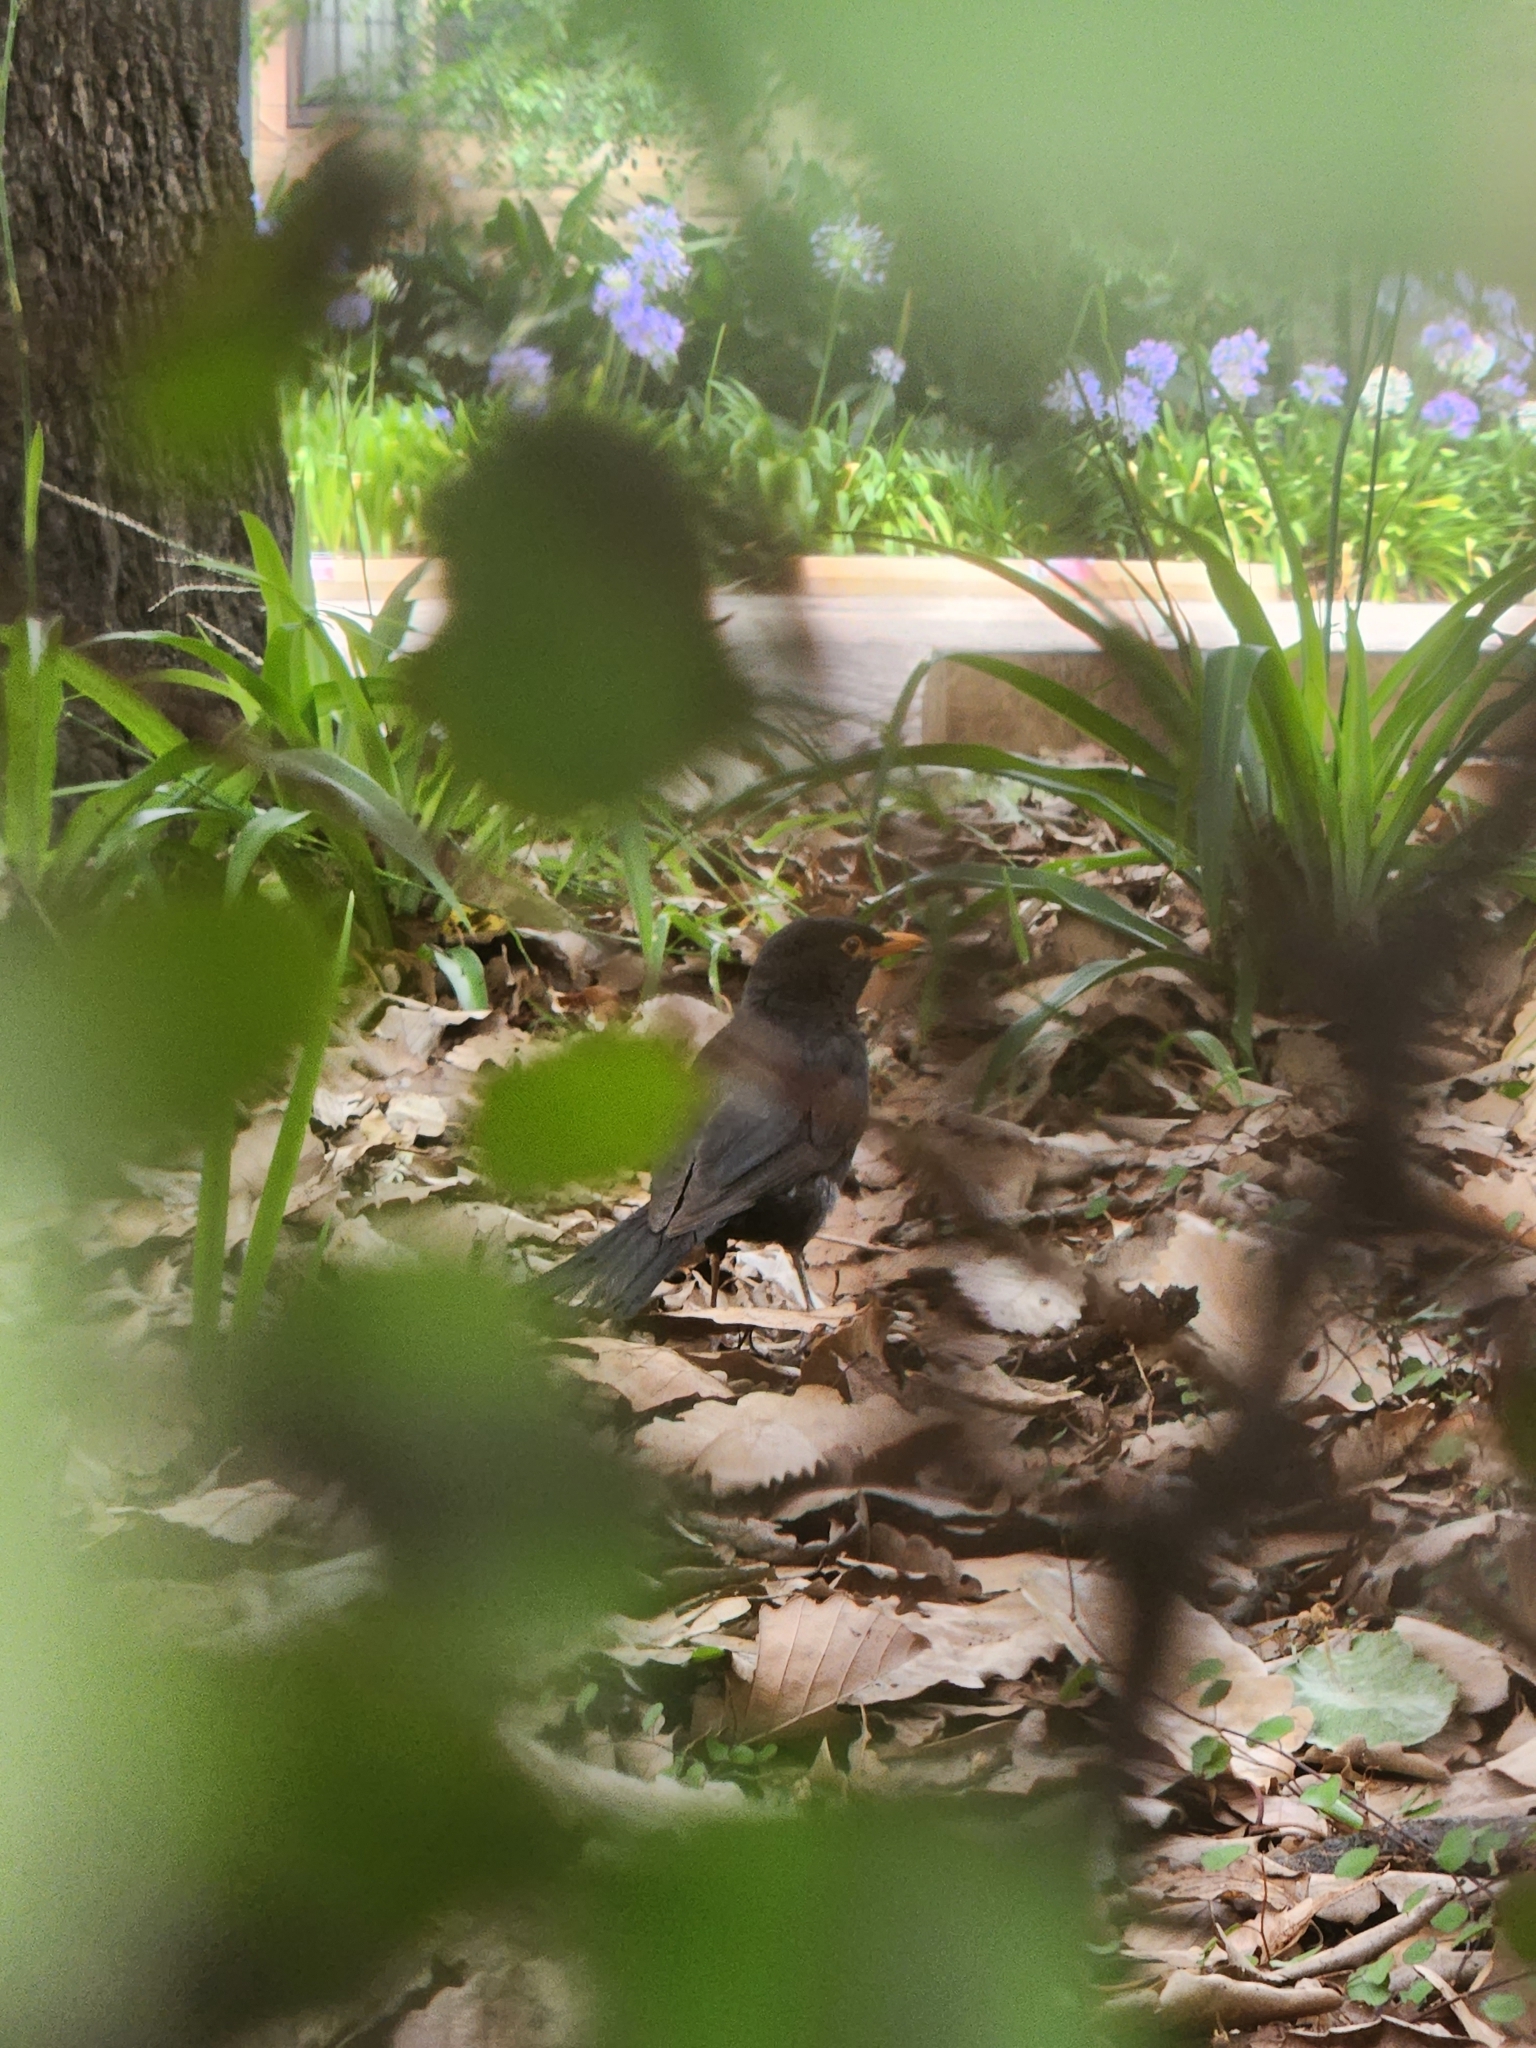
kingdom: Animalia
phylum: Chordata
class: Aves
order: Passeriformes
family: Turdidae
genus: Turdus
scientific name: Turdus merula
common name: Common blackbird
